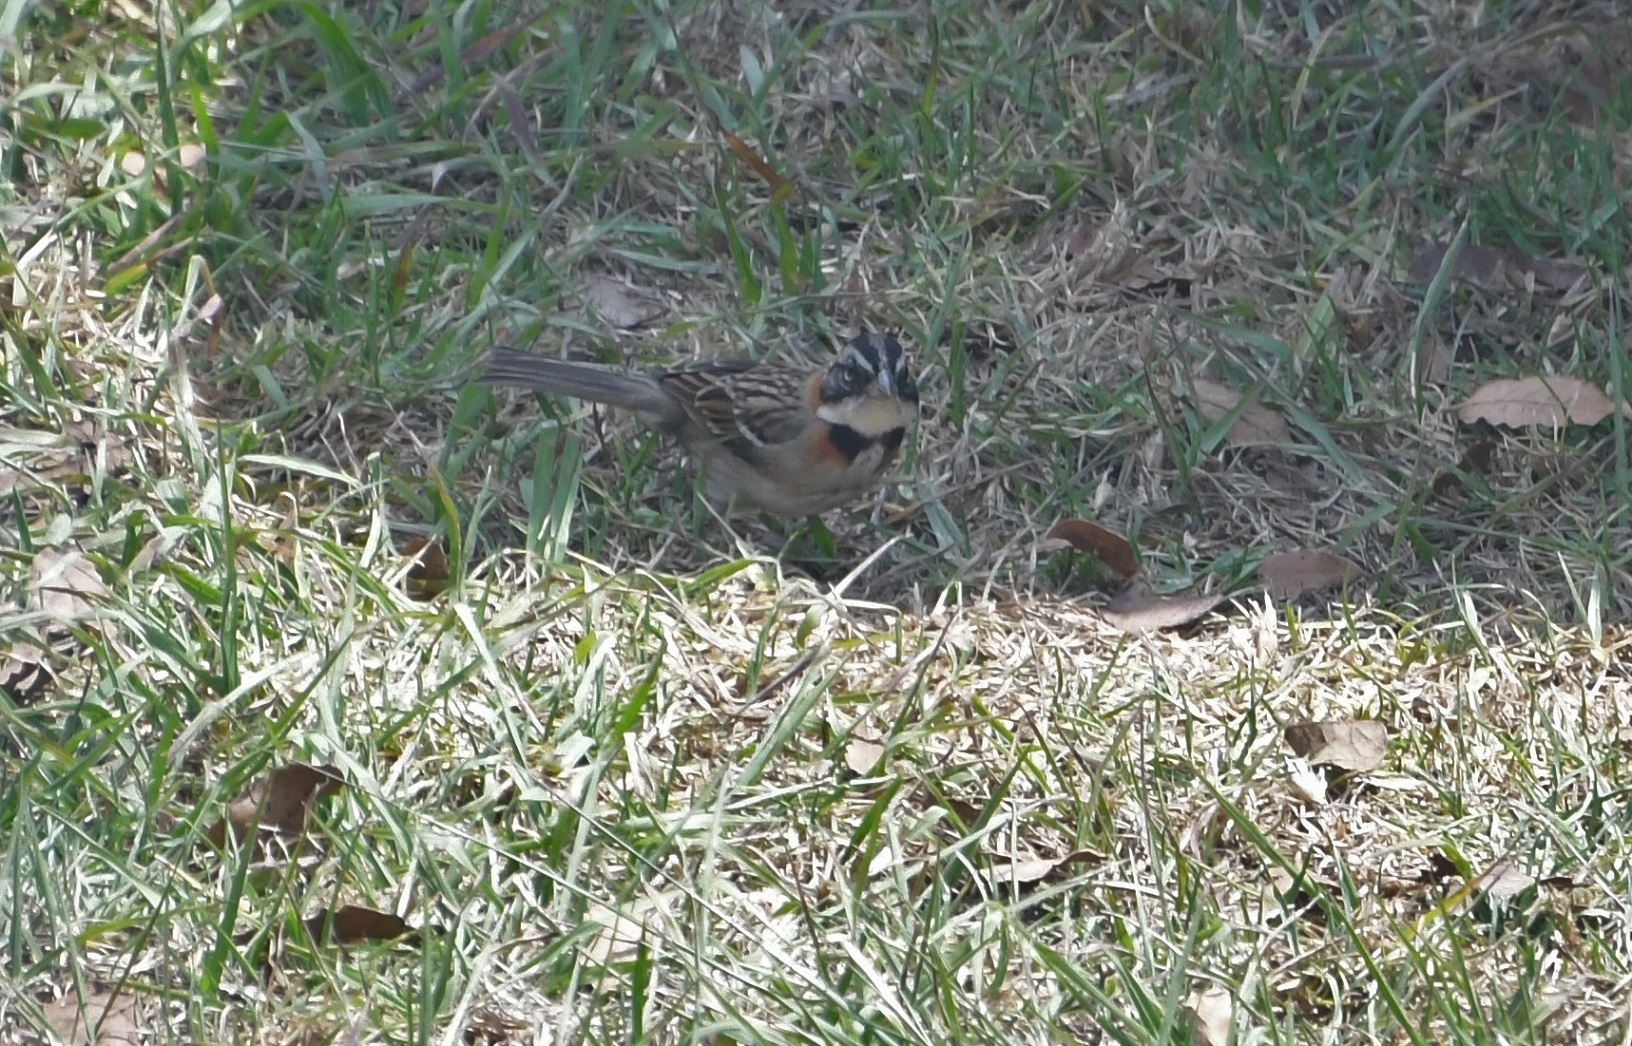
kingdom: Animalia
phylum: Chordata
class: Aves
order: Passeriformes
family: Passerellidae
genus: Zonotrichia
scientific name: Zonotrichia capensis
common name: Rufous-collared sparrow
